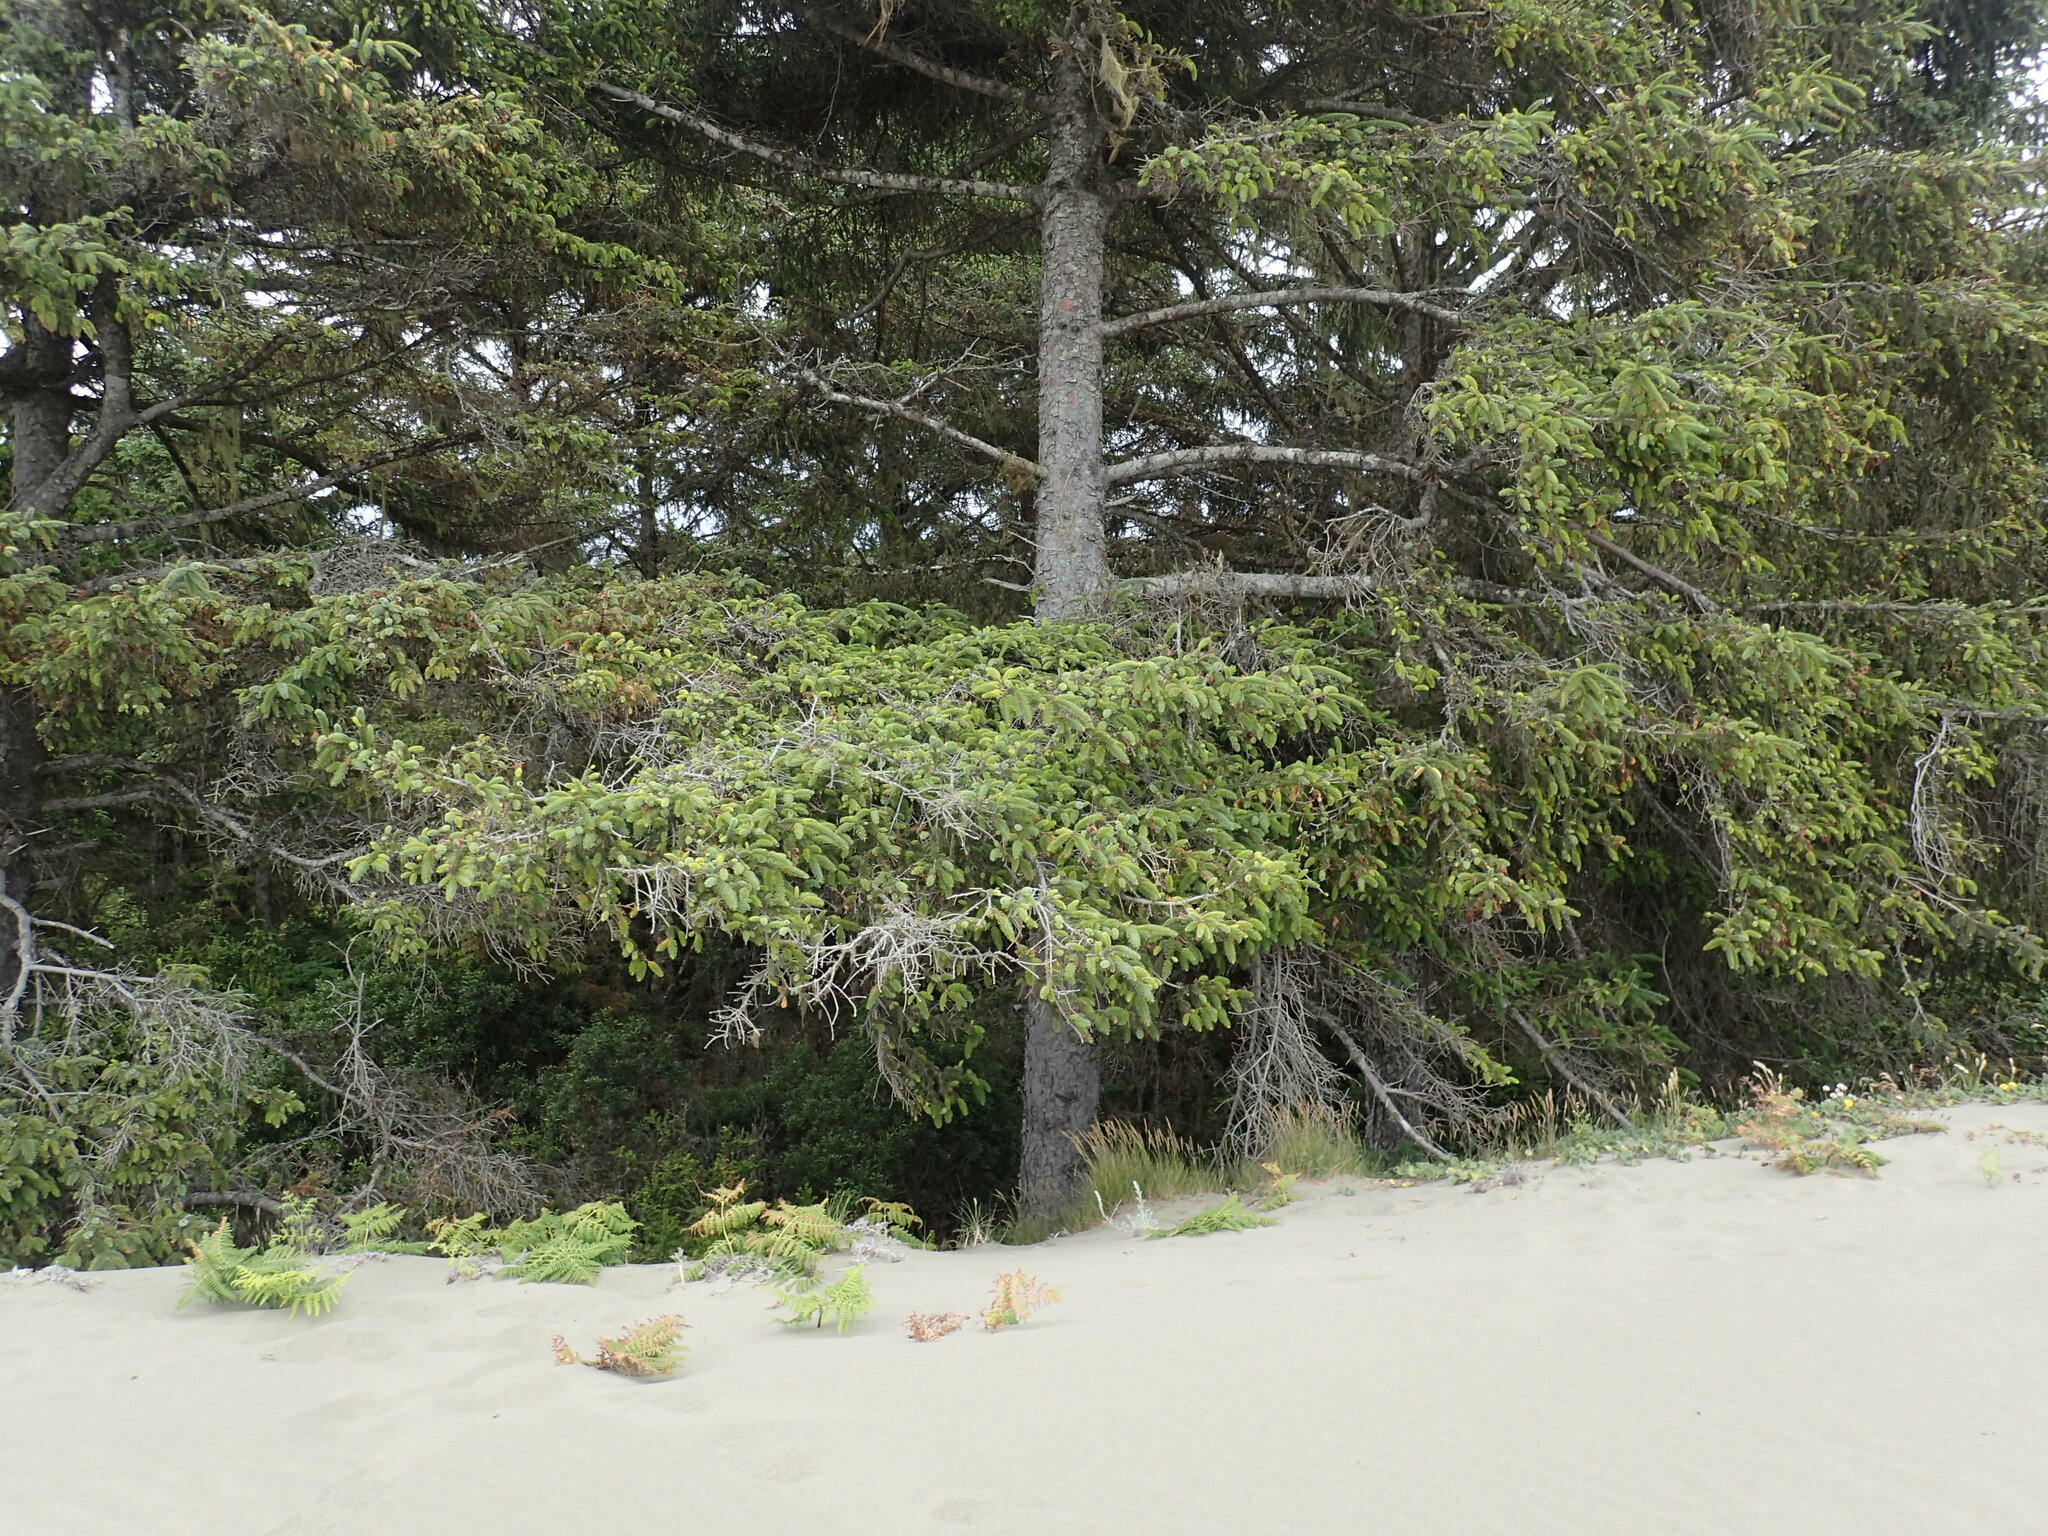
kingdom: Plantae
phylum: Tracheophyta
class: Pinopsida
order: Pinales
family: Pinaceae
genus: Picea
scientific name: Picea sitchensis
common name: Sitka spruce
